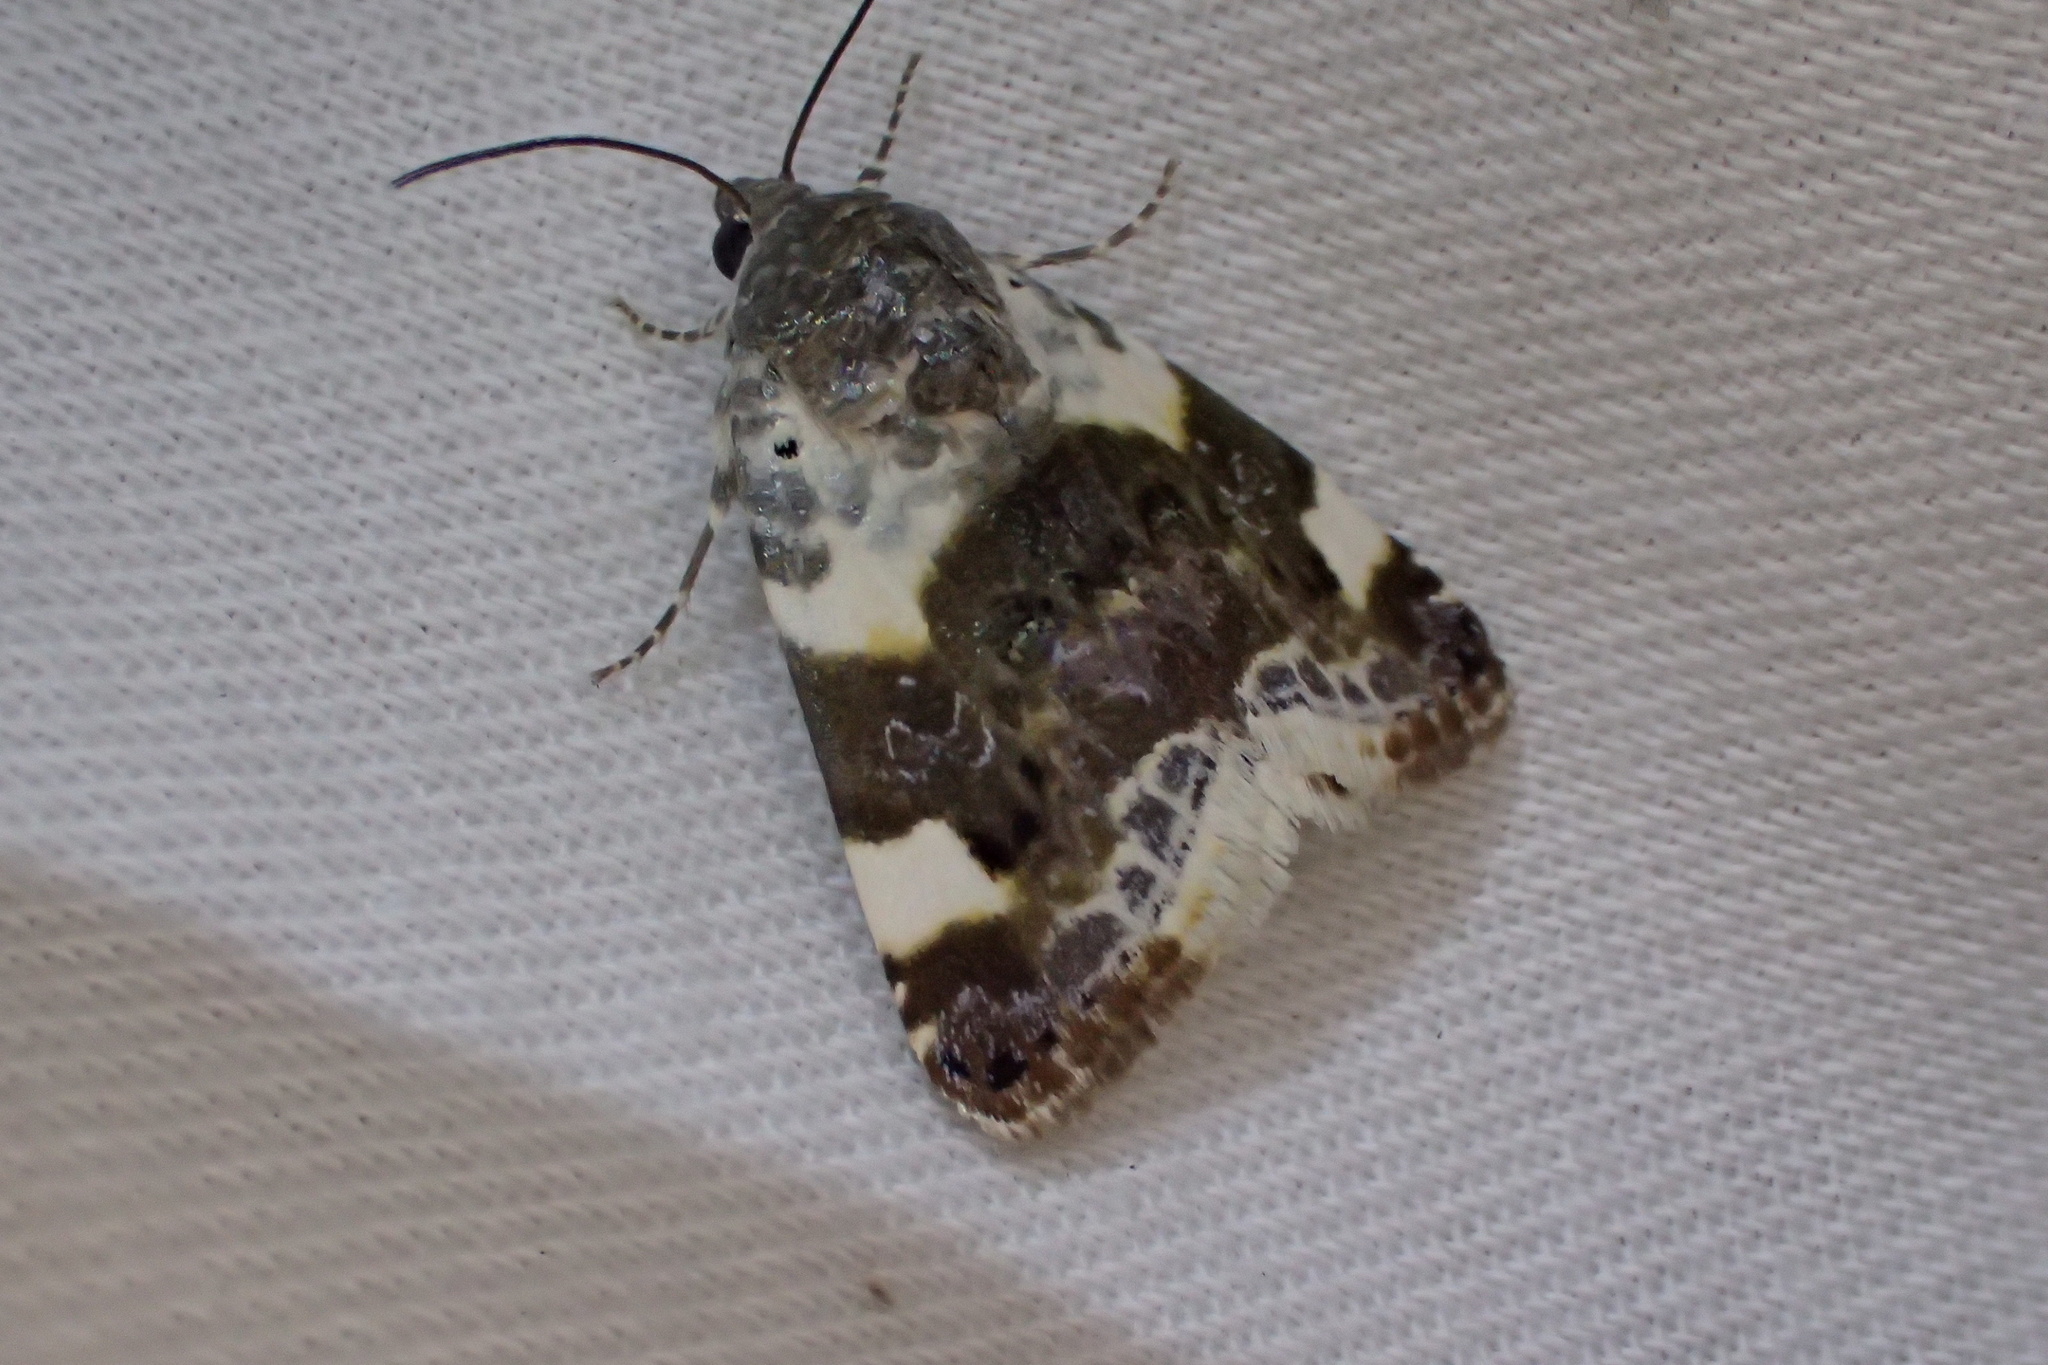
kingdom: Animalia
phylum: Arthropoda
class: Insecta
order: Lepidoptera
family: Noctuidae
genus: Acontia
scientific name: Acontia lucida
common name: Pale shoulder
